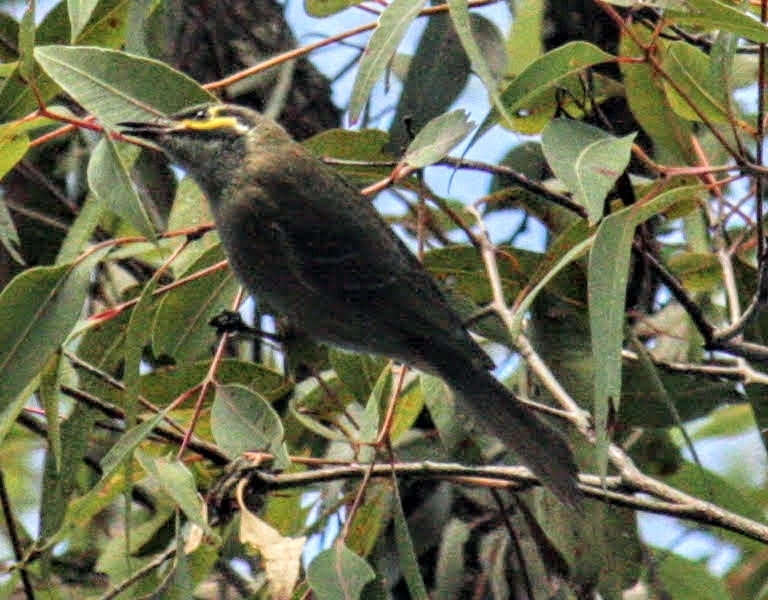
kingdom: Animalia
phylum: Chordata
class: Aves
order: Passeriformes
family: Meliphagidae
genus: Caligavis
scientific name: Caligavis chrysops
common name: Yellow-faced honeyeater
